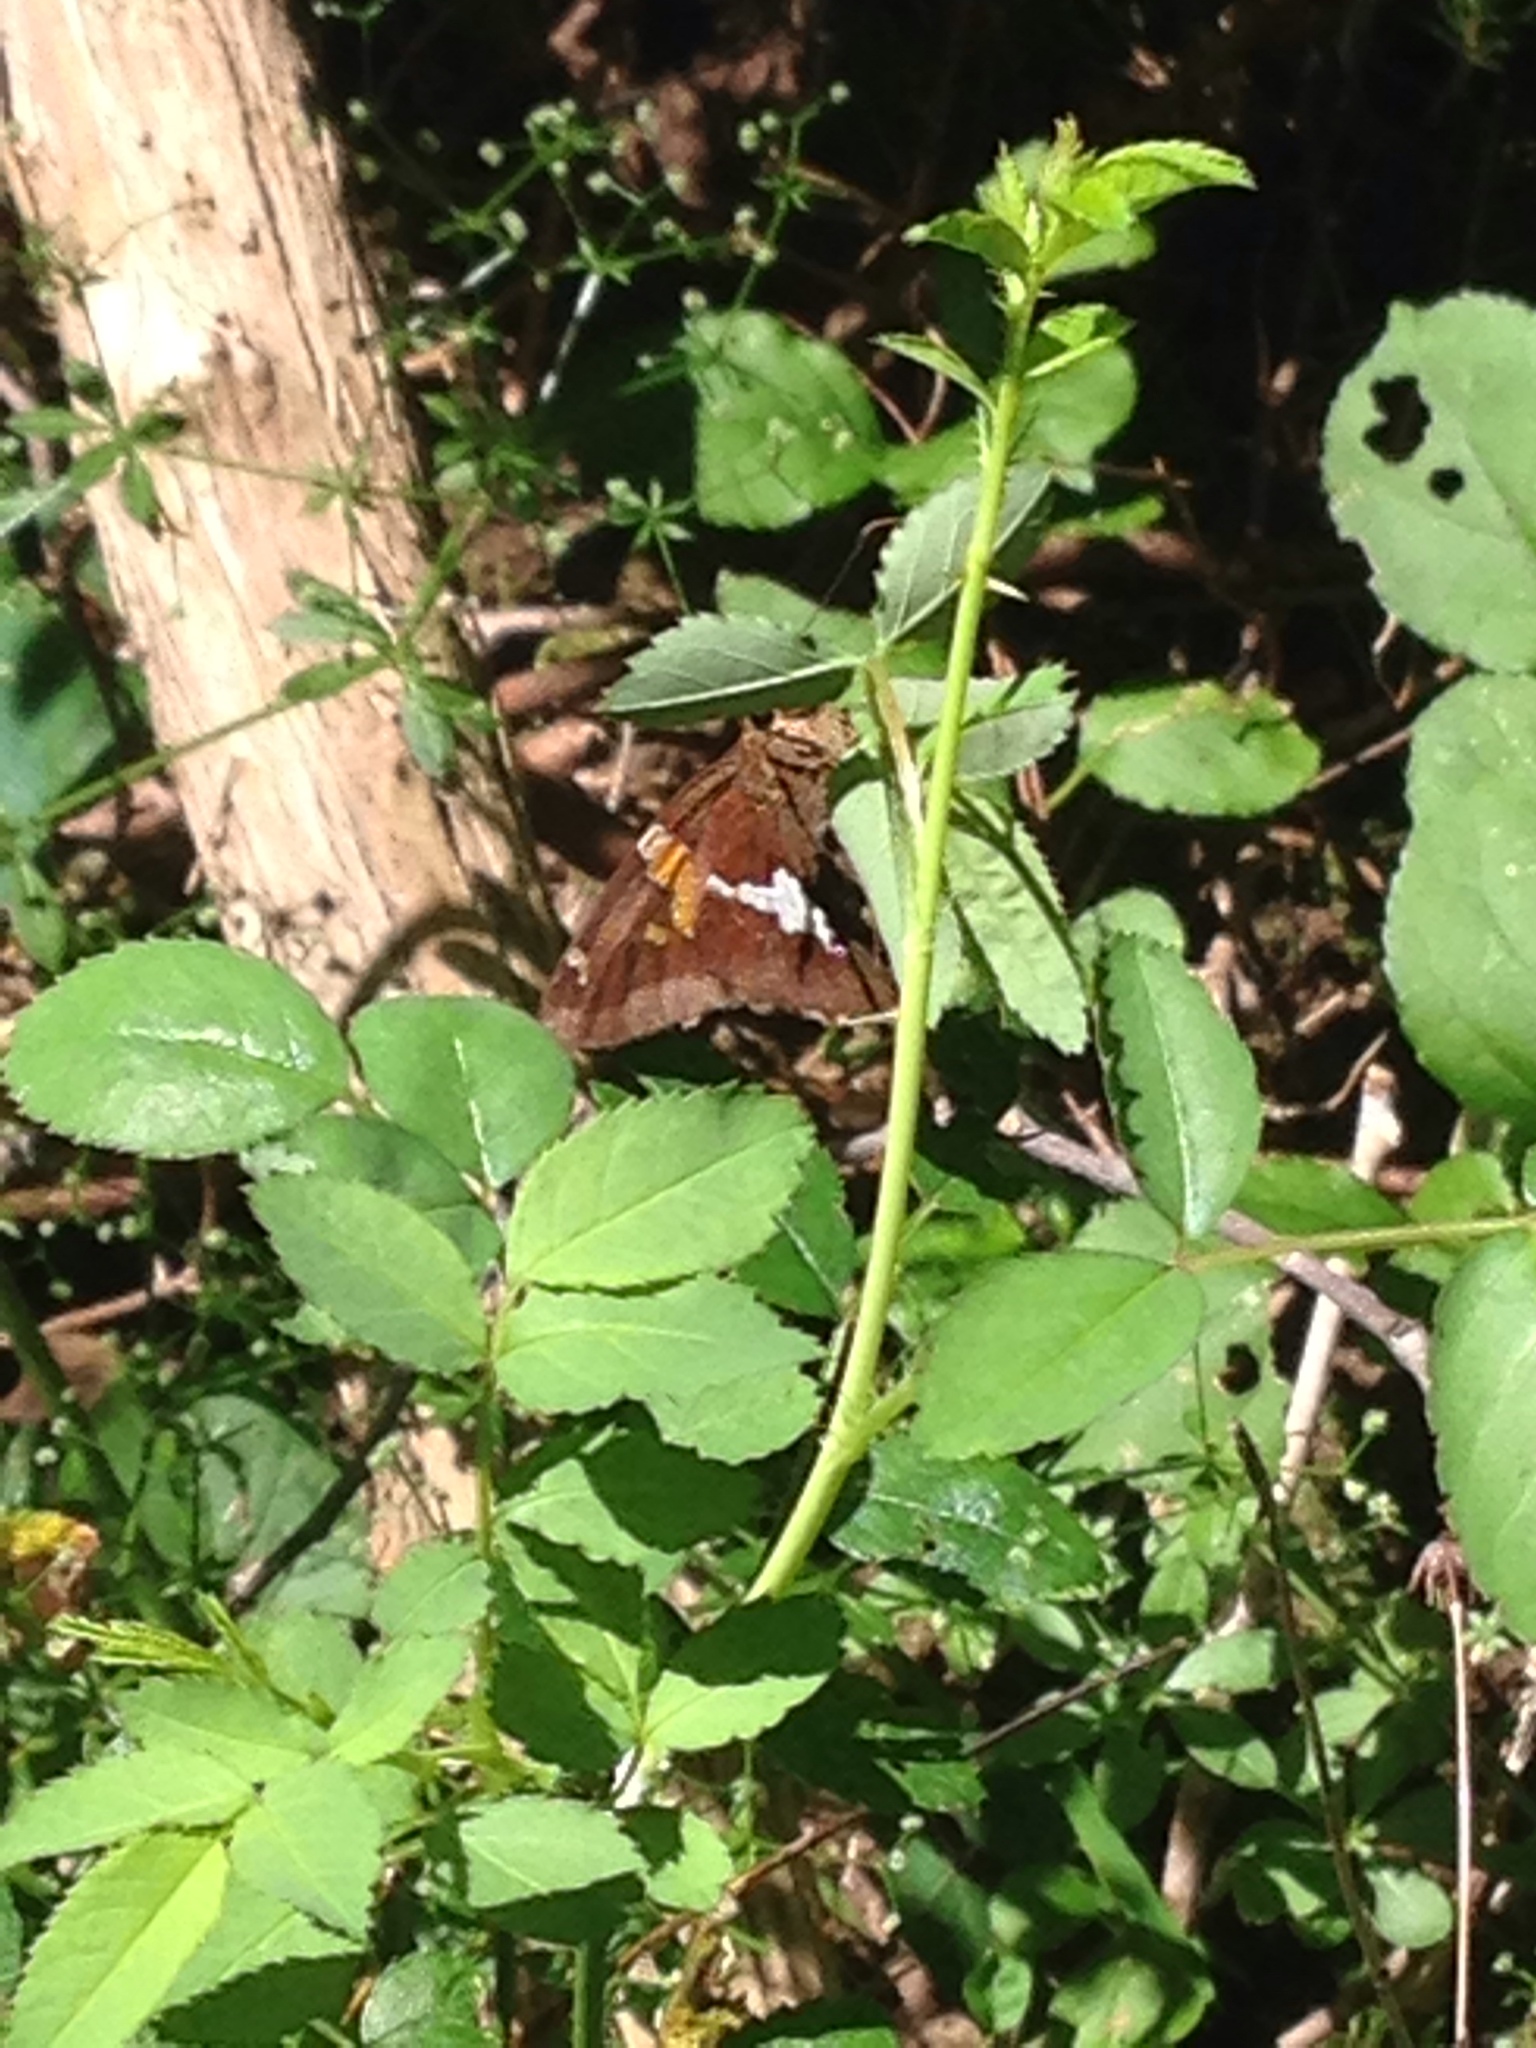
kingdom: Animalia
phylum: Arthropoda
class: Insecta
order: Lepidoptera
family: Hesperiidae
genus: Epargyreus
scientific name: Epargyreus clarus
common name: Silver-spotted skipper
